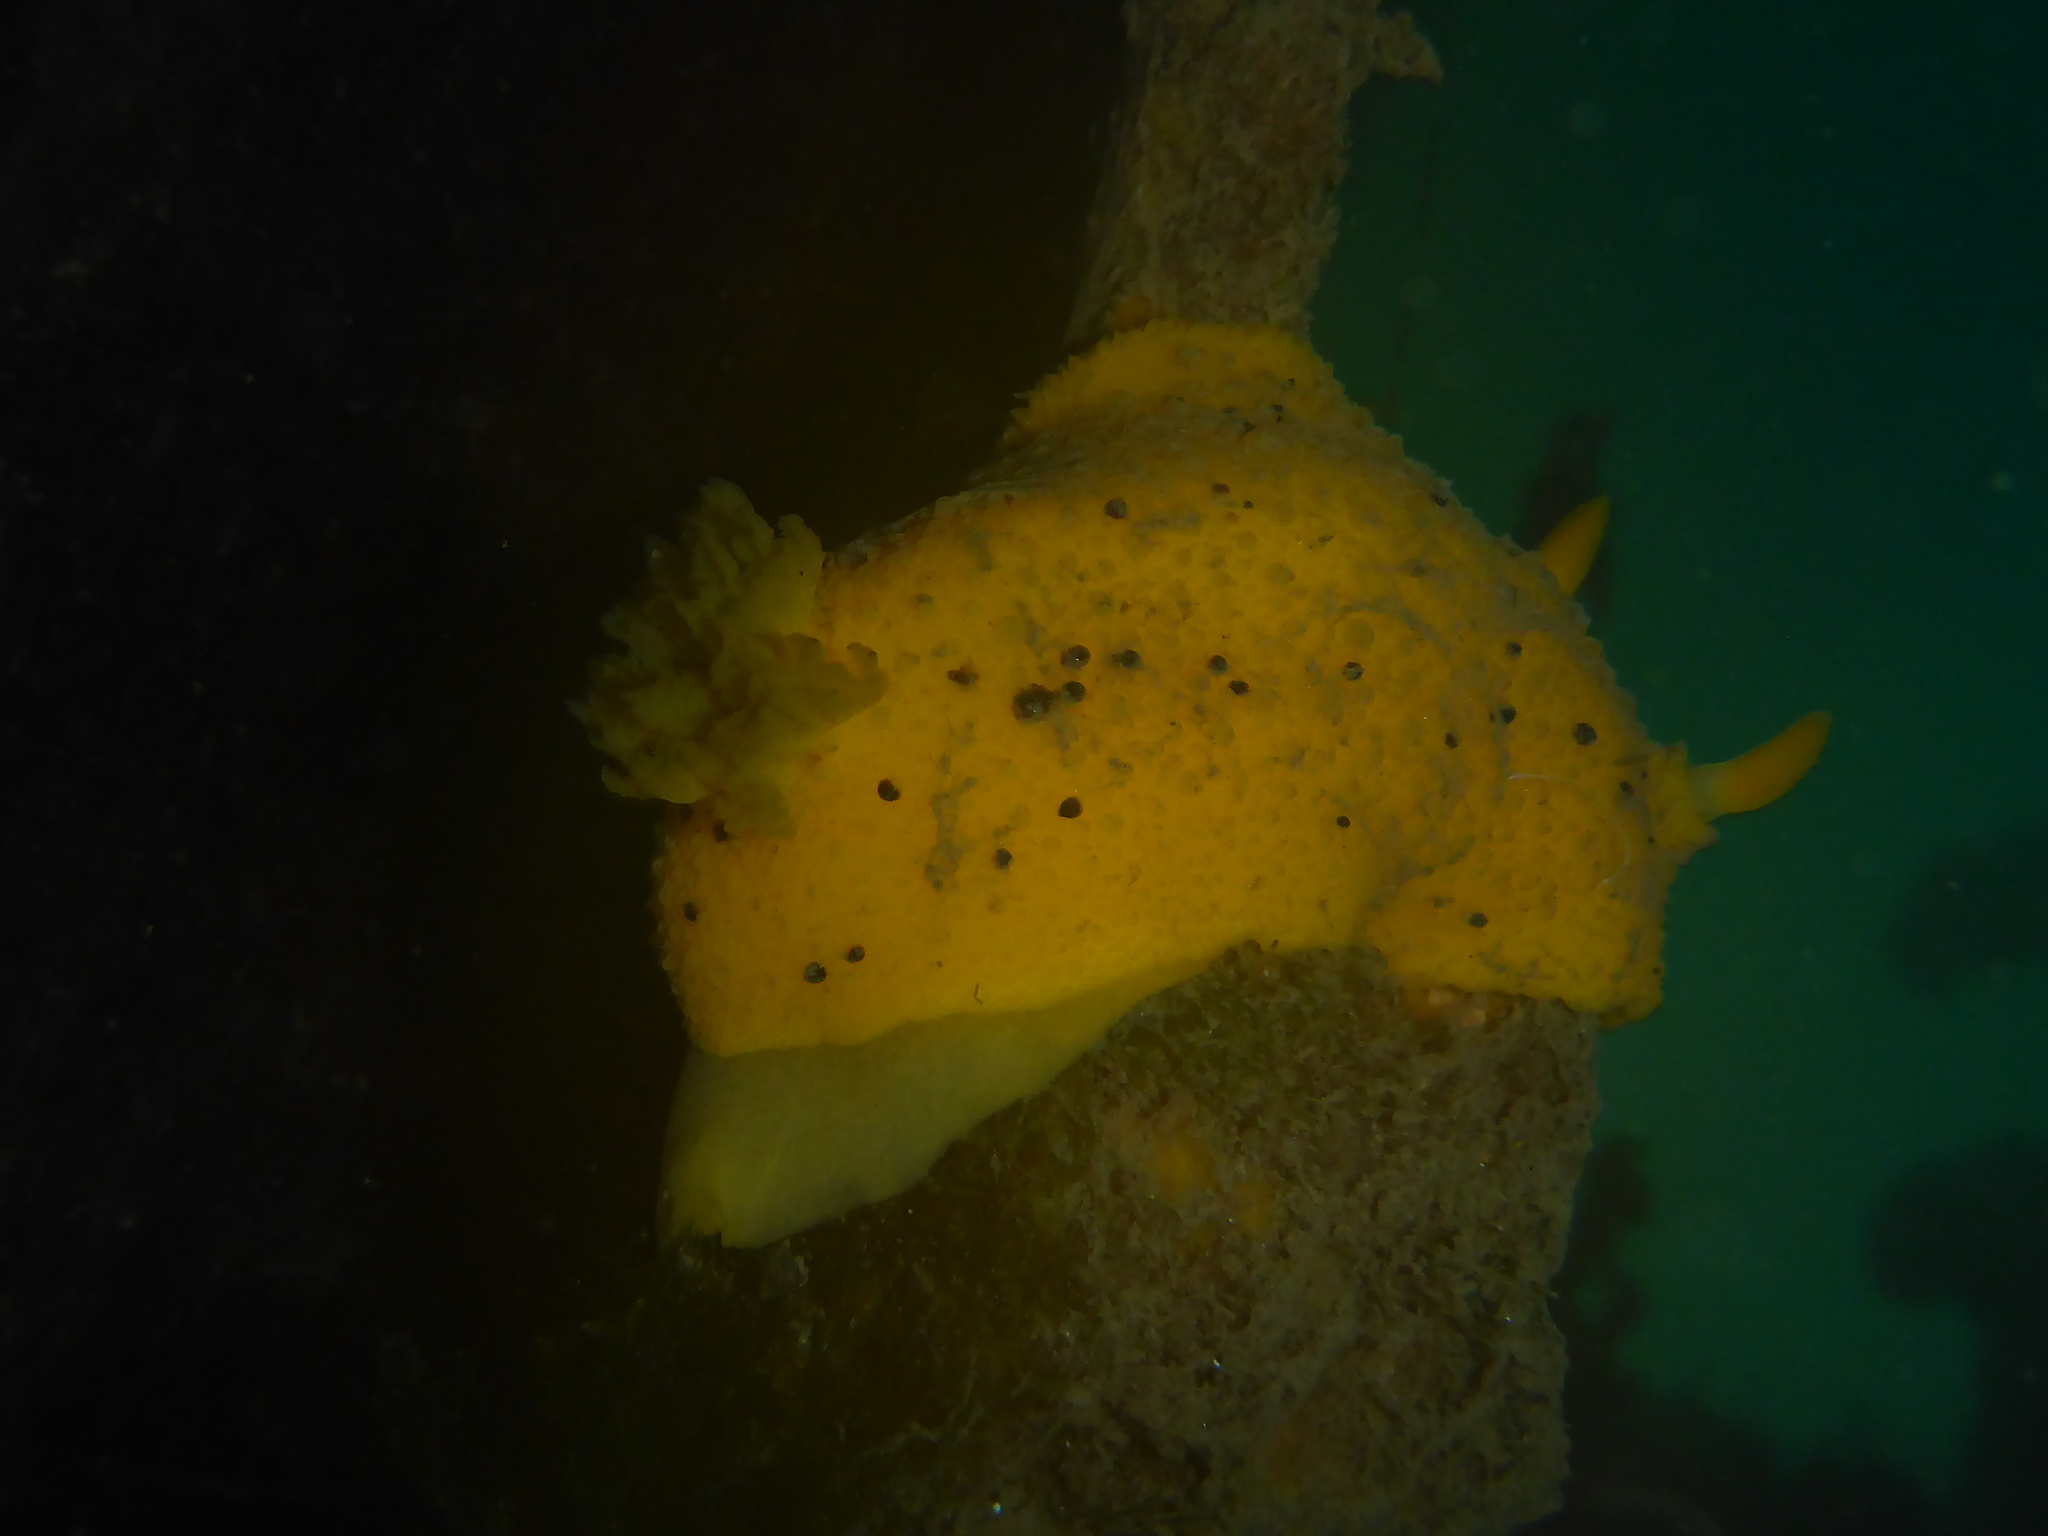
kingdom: Animalia
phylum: Mollusca
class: Gastropoda
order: Nudibranchia
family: Dorididae
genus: Doris
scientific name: Doris montereyensis
